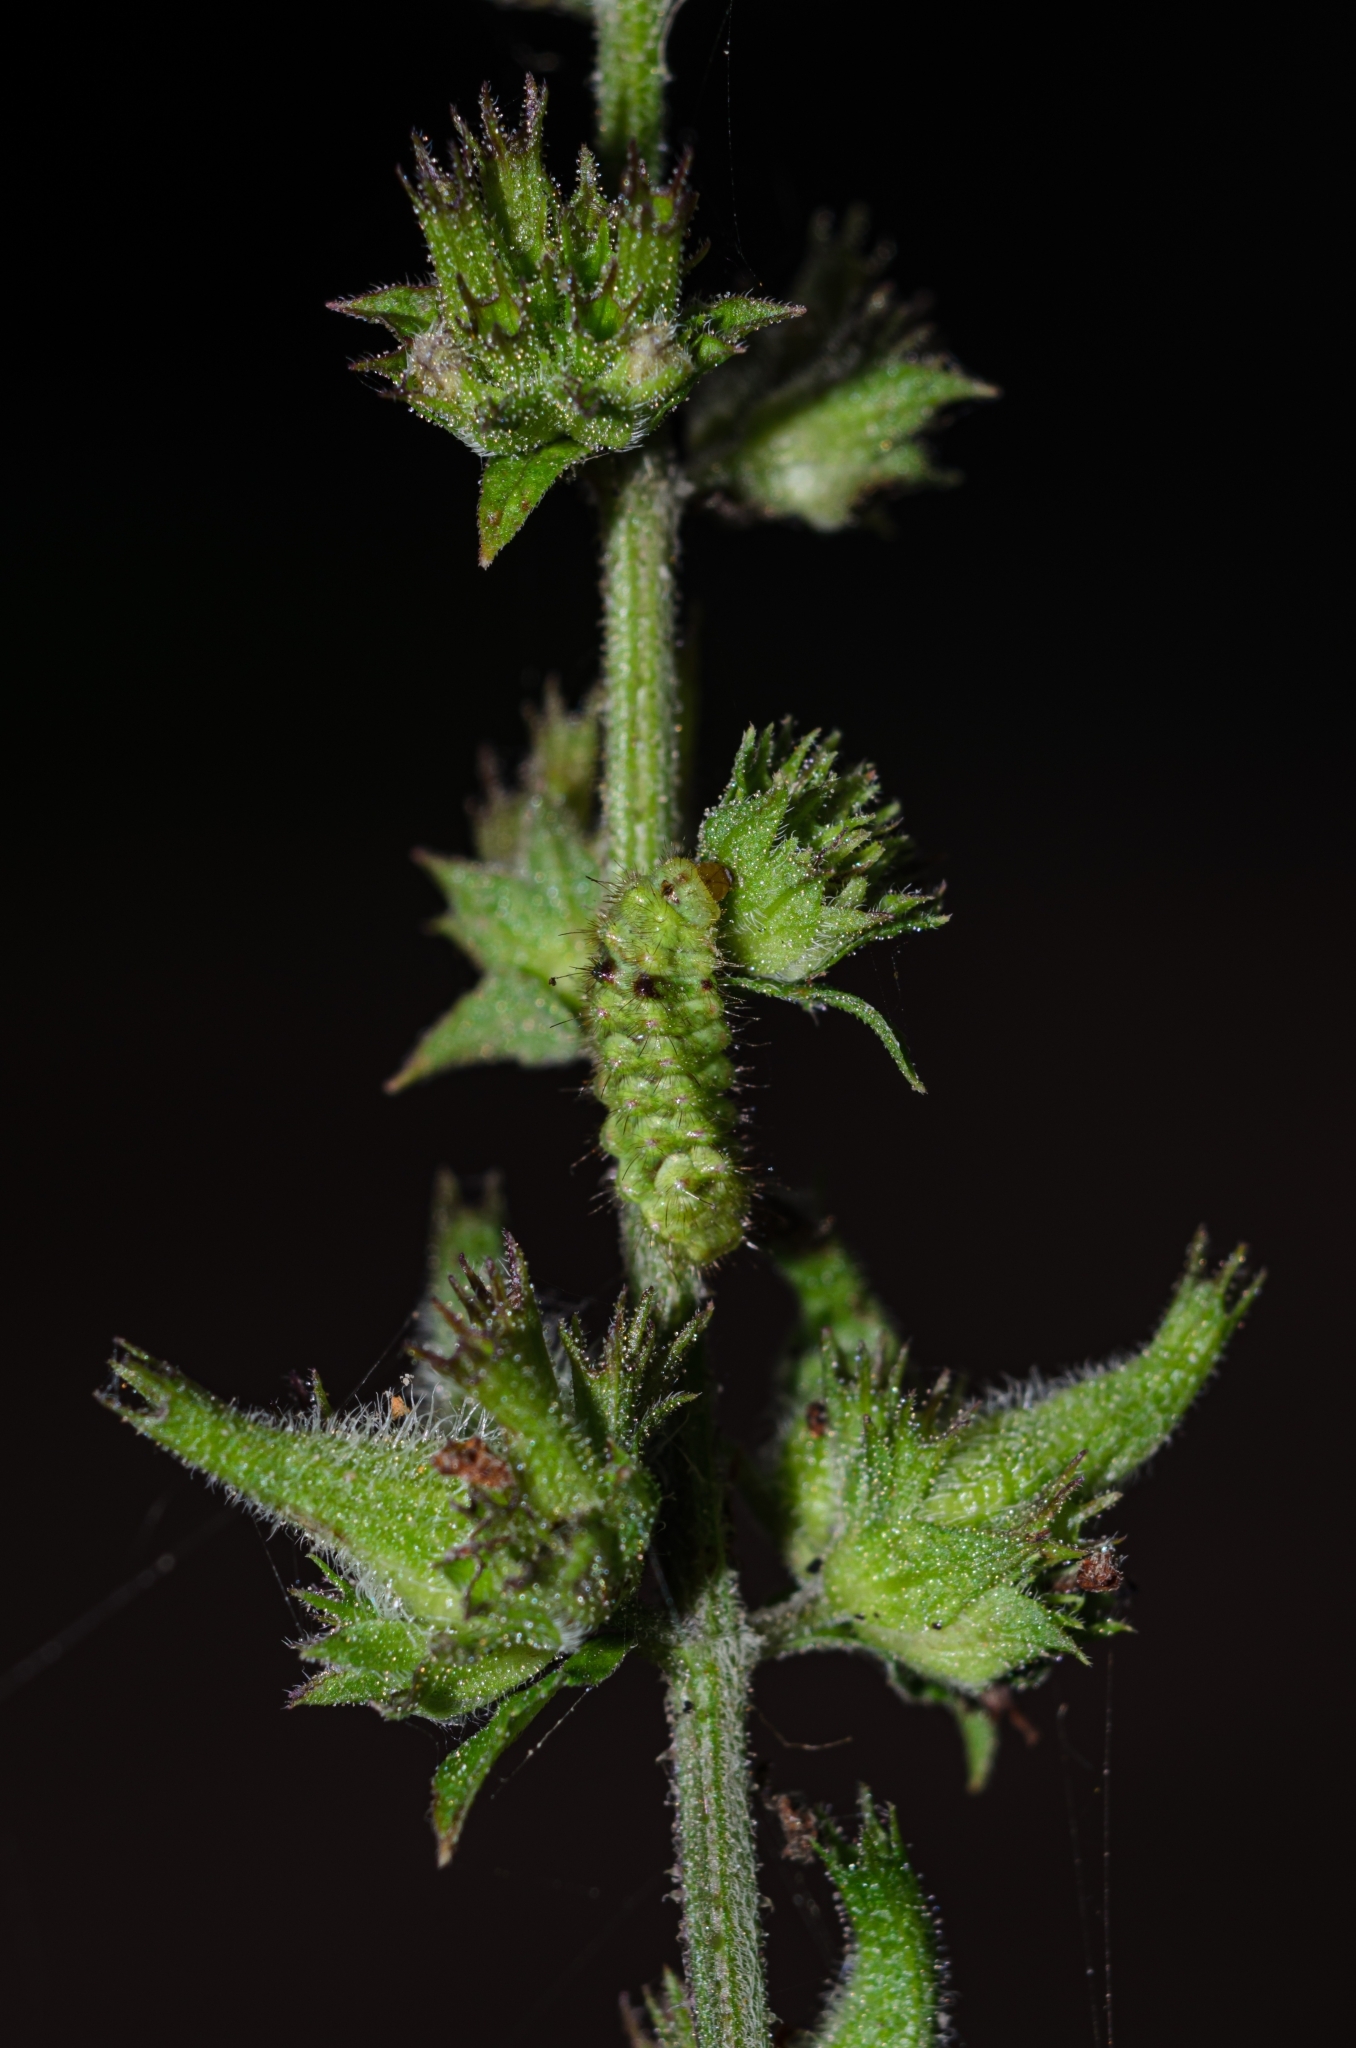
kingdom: Animalia
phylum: Arthropoda
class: Insecta
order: Lepidoptera
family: Lycaenidae
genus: Thecla
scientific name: Thecla herodotus
